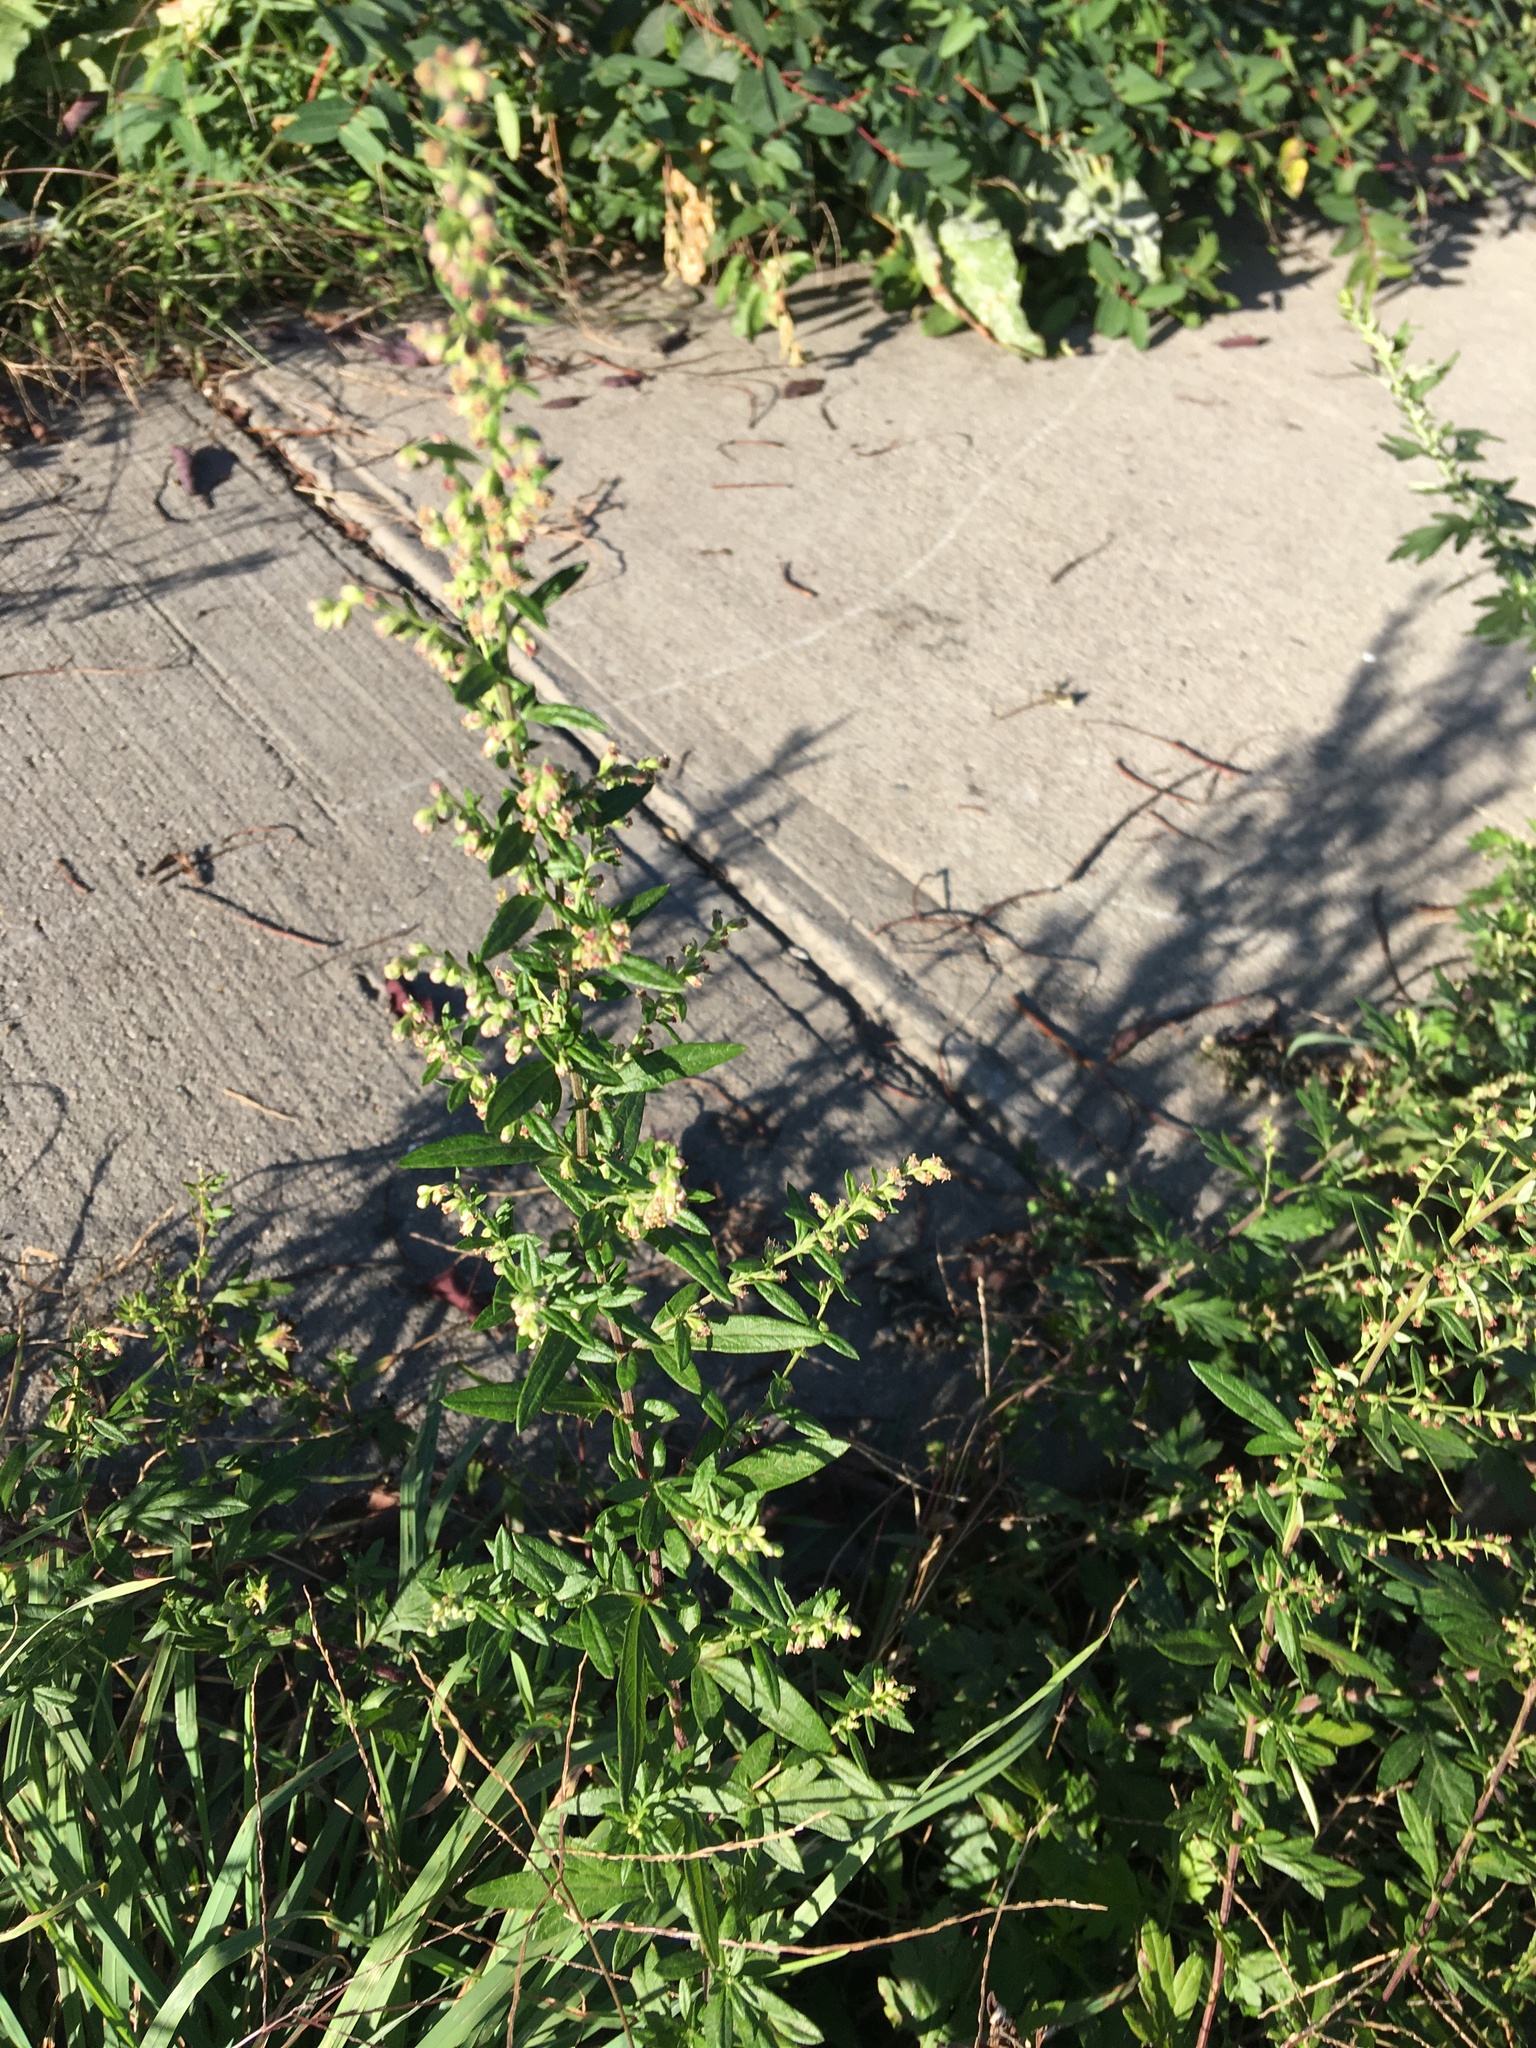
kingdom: Plantae
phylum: Tracheophyta
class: Magnoliopsida
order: Asterales
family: Asteraceae
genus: Artemisia
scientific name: Artemisia vulgaris
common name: Mugwort
